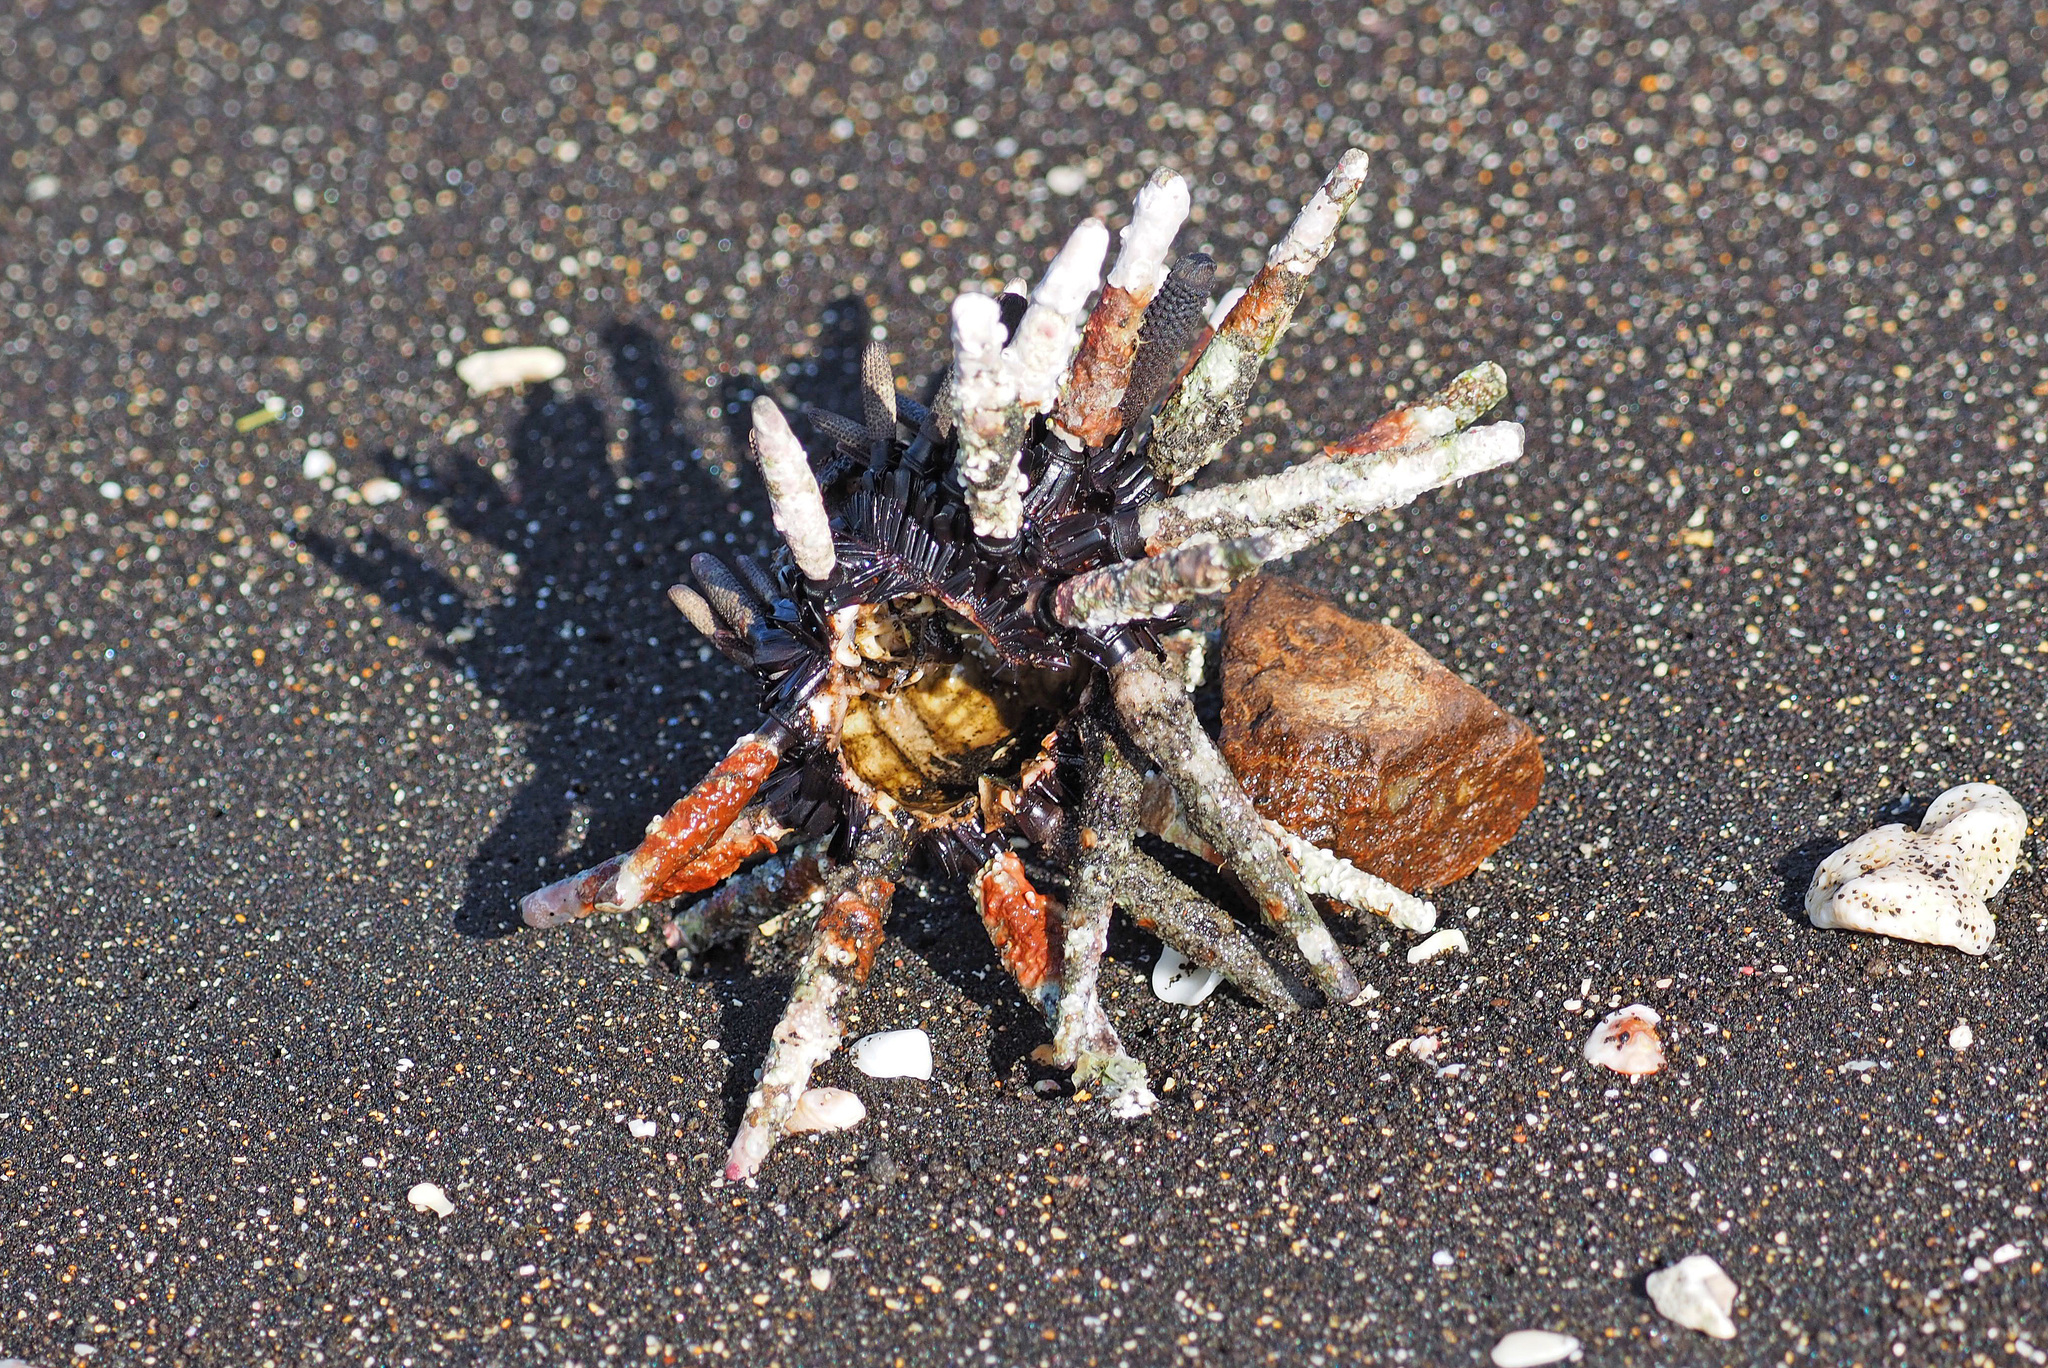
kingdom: Animalia
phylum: Echinodermata
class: Echinoidea
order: Cidaroida
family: Cidaridae
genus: Eucidaris
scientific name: Eucidaris galapagensis
